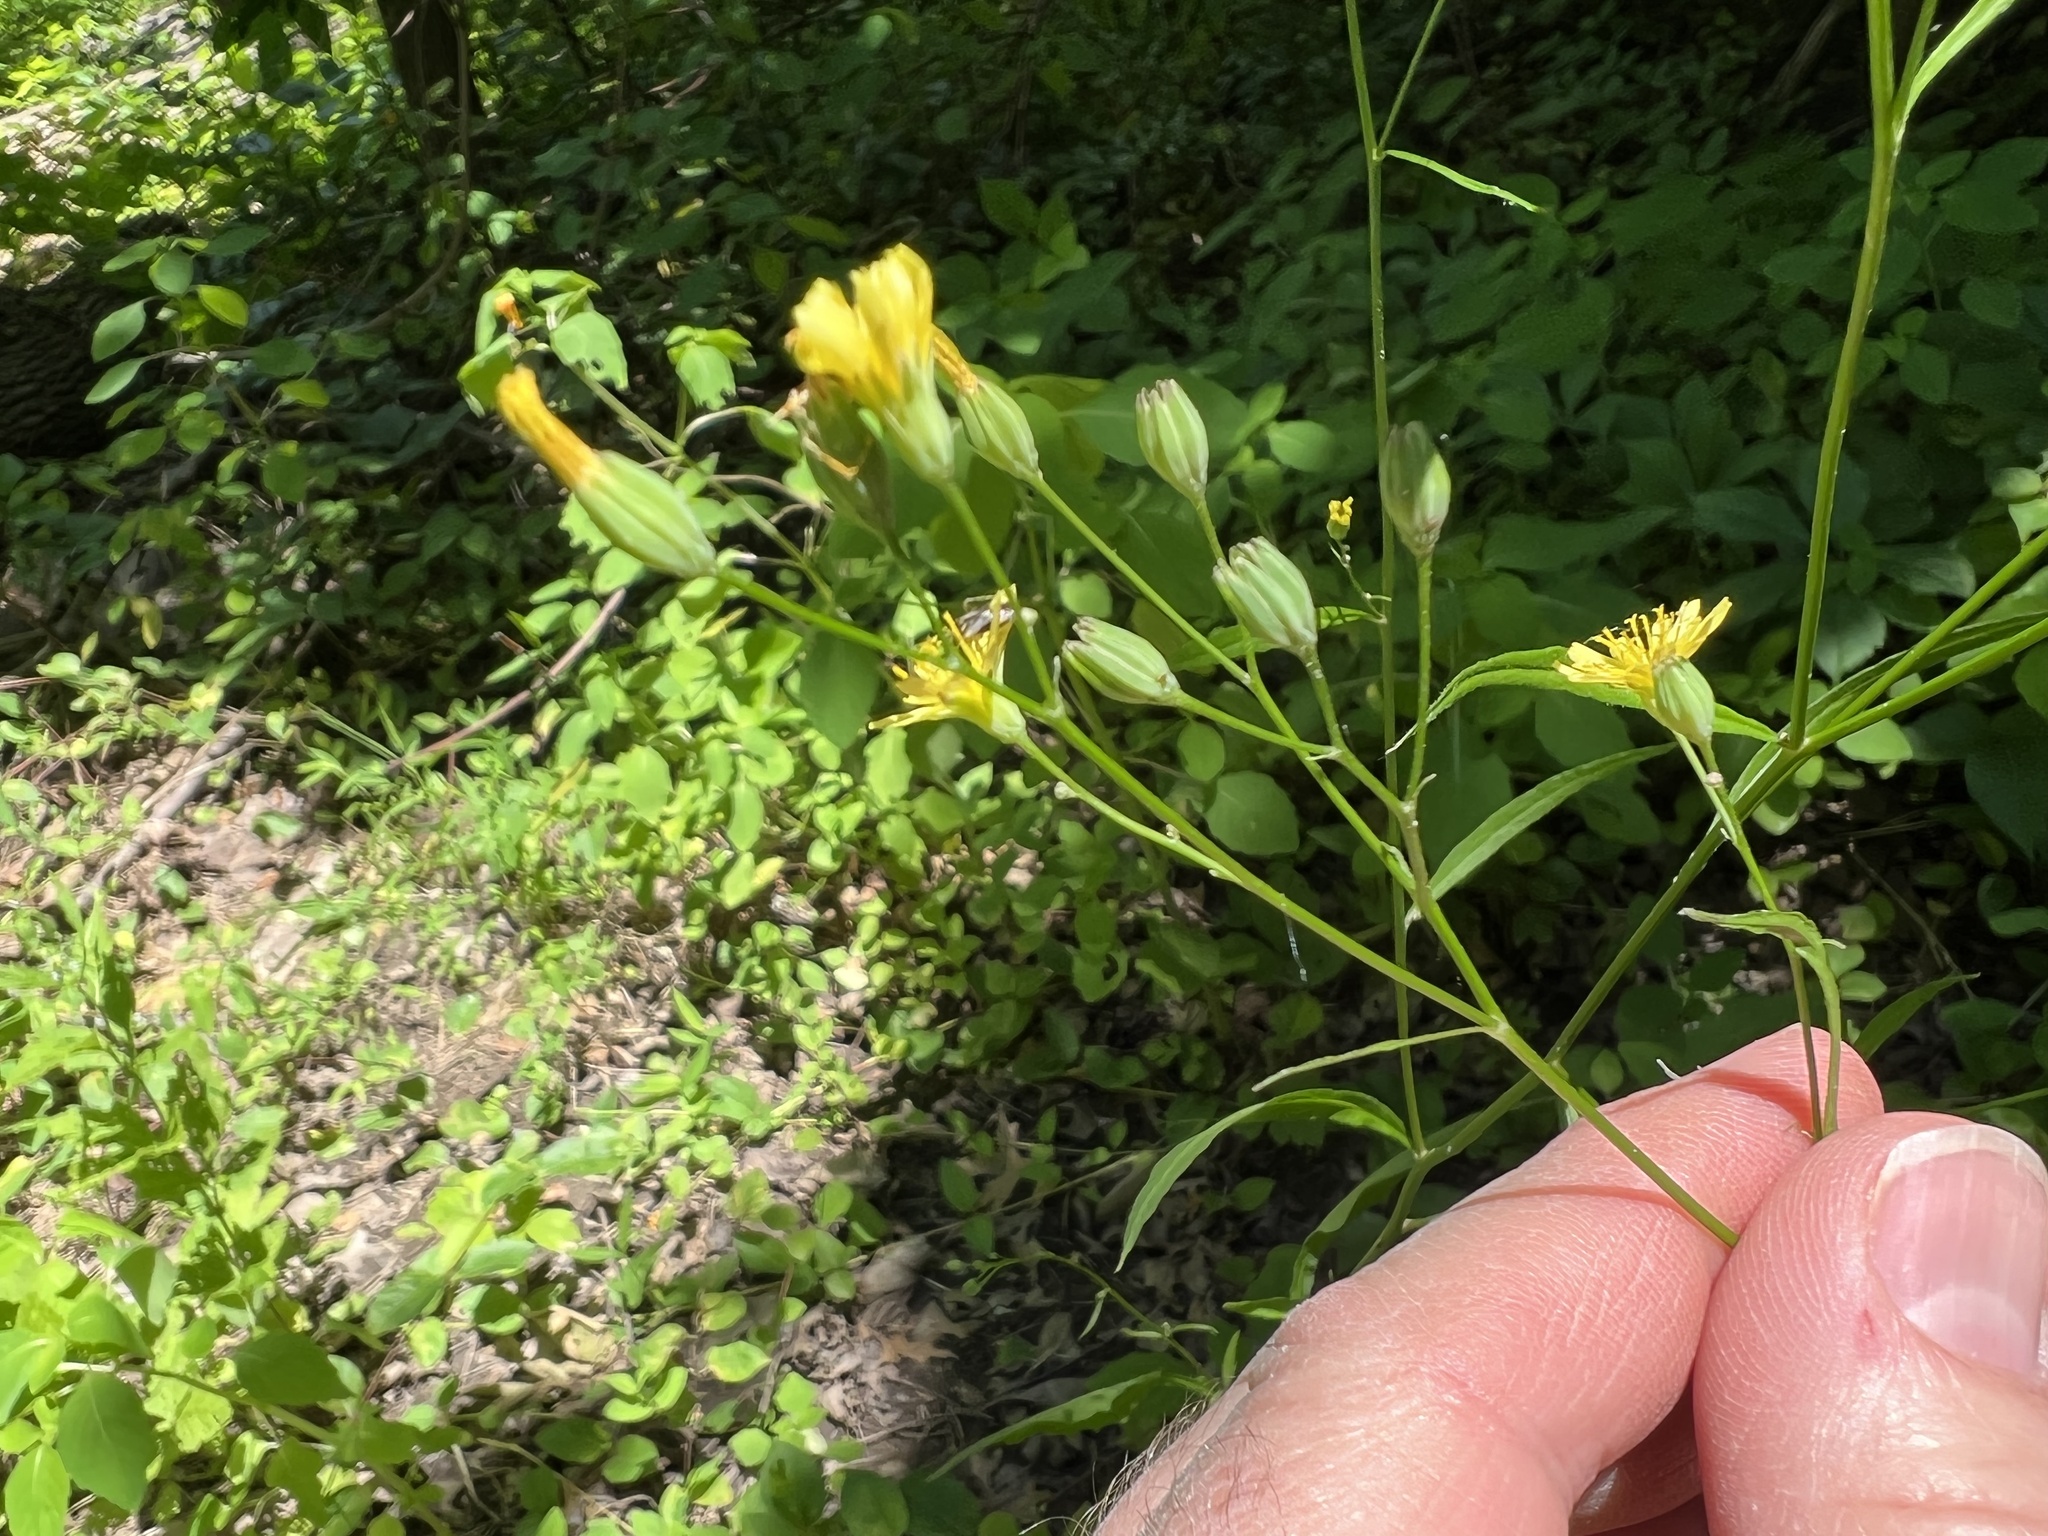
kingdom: Plantae
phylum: Tracheophyta
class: Magnoliopsida
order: Asterales
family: Asteraceae
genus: Lapsana
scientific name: Lapsana communis
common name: Nipplewort
